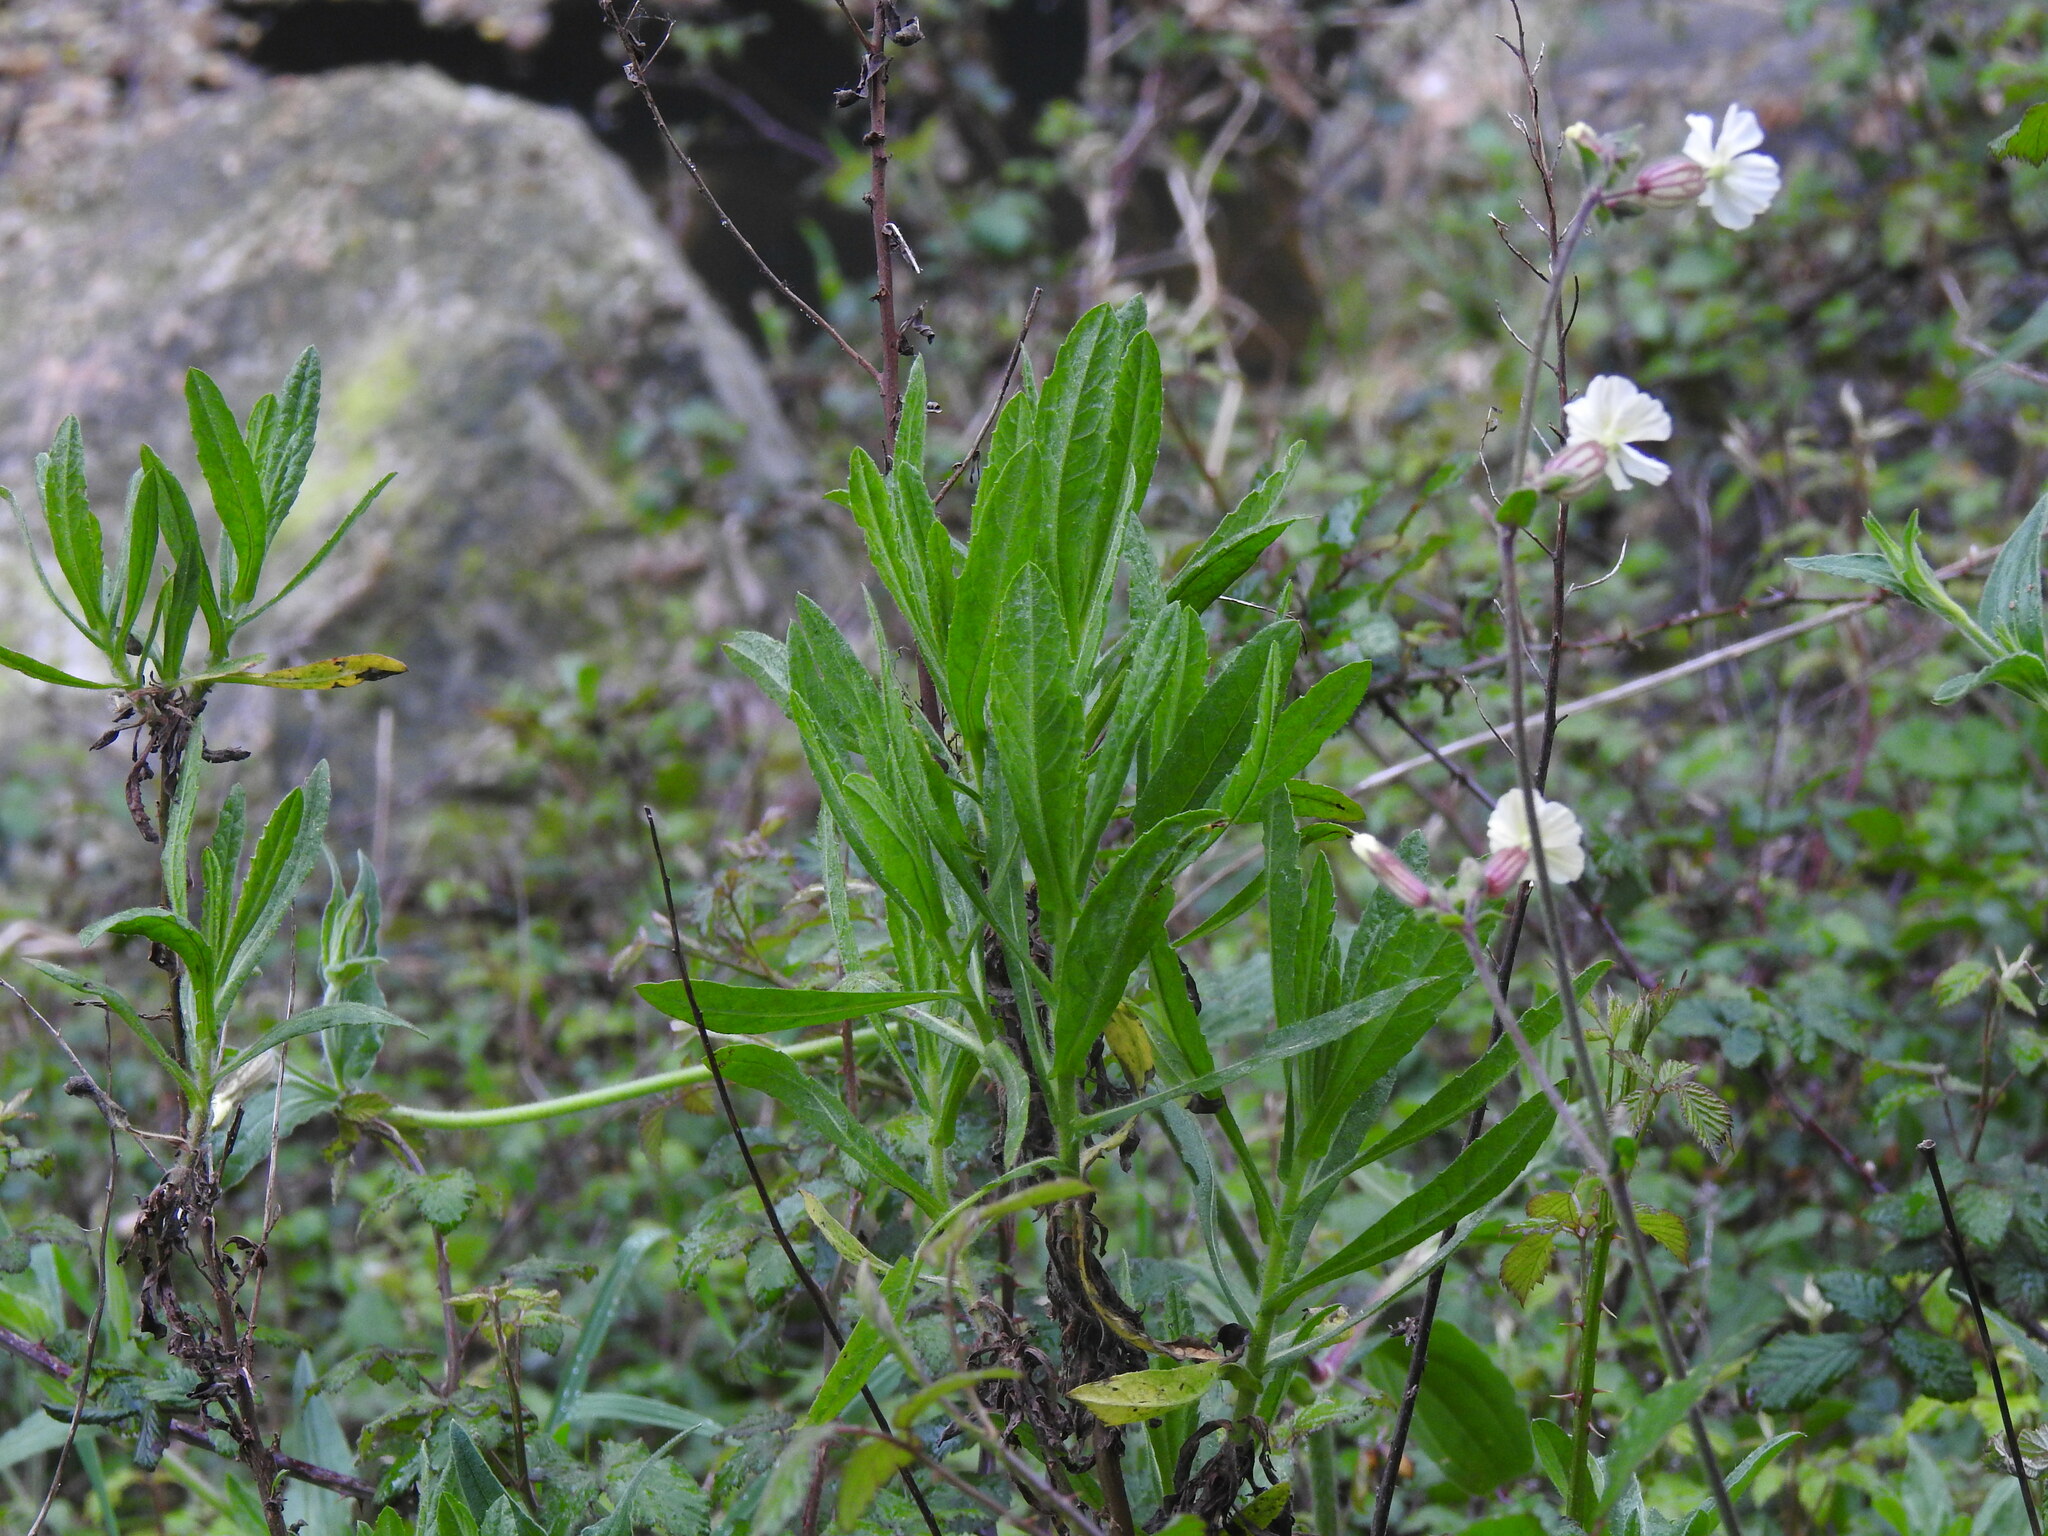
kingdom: Plantae
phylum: Tracheophyta
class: Magnoliopsida
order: Asterales
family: Asteraceae
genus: Dittrichia
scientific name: Dittrichia viscosa
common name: Woody fleabane
